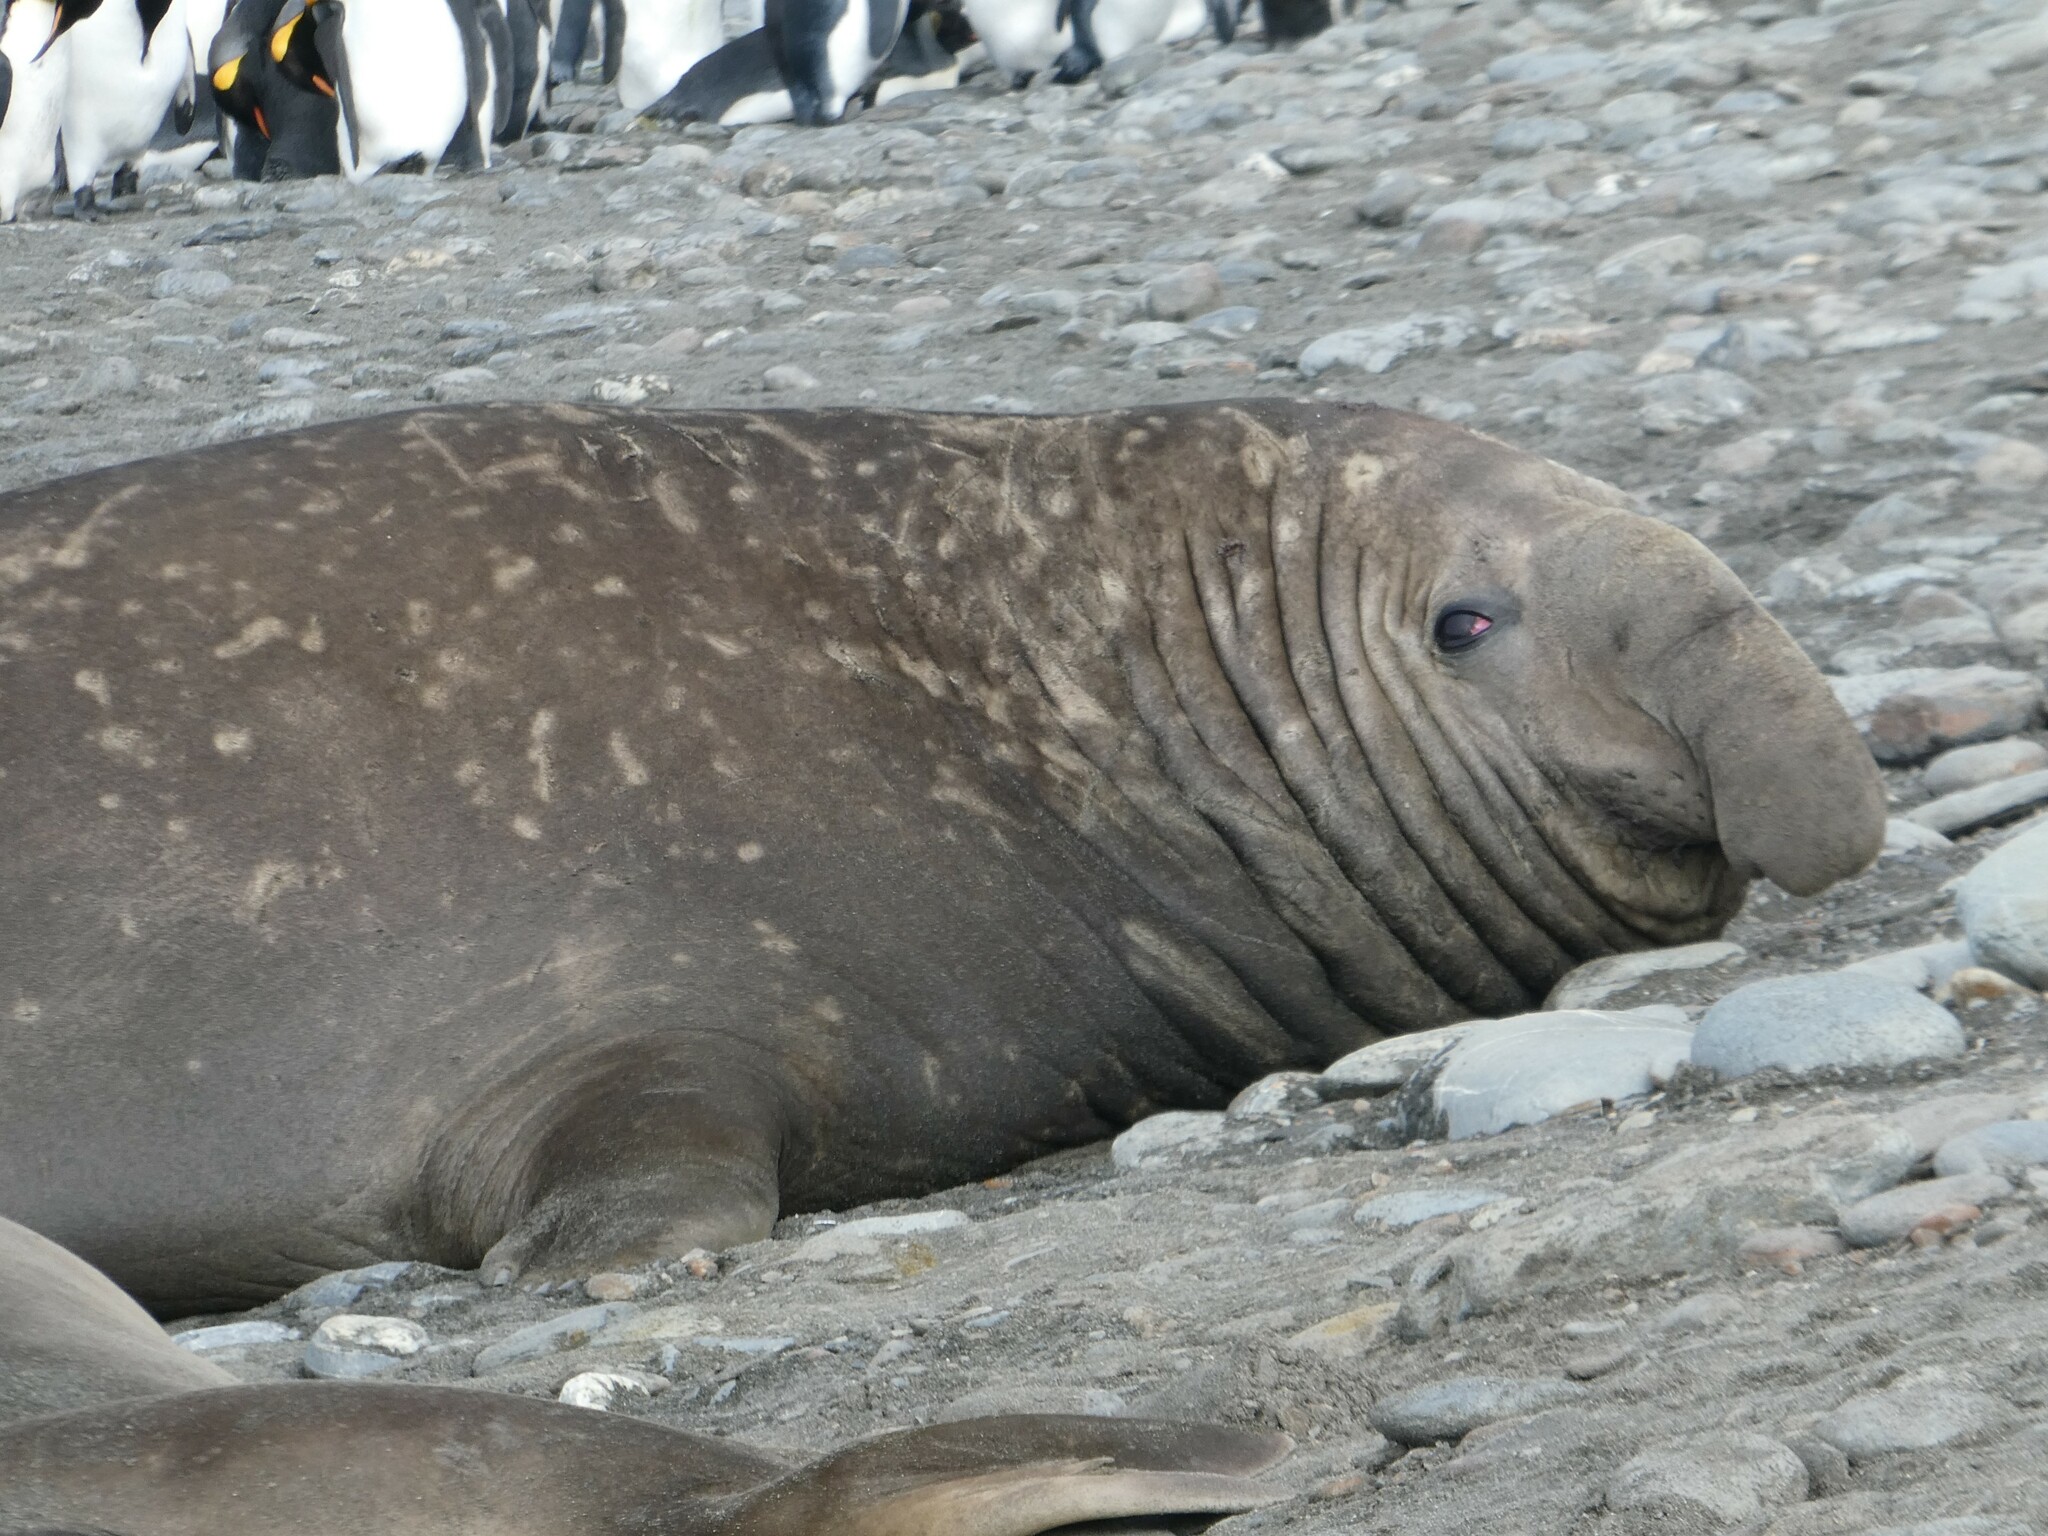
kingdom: Animalia
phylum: Chordata
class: Mammalia
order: Carnivora
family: Phocidae
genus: Mirounga
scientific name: Mirounga leonina
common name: Southern elephant seal
